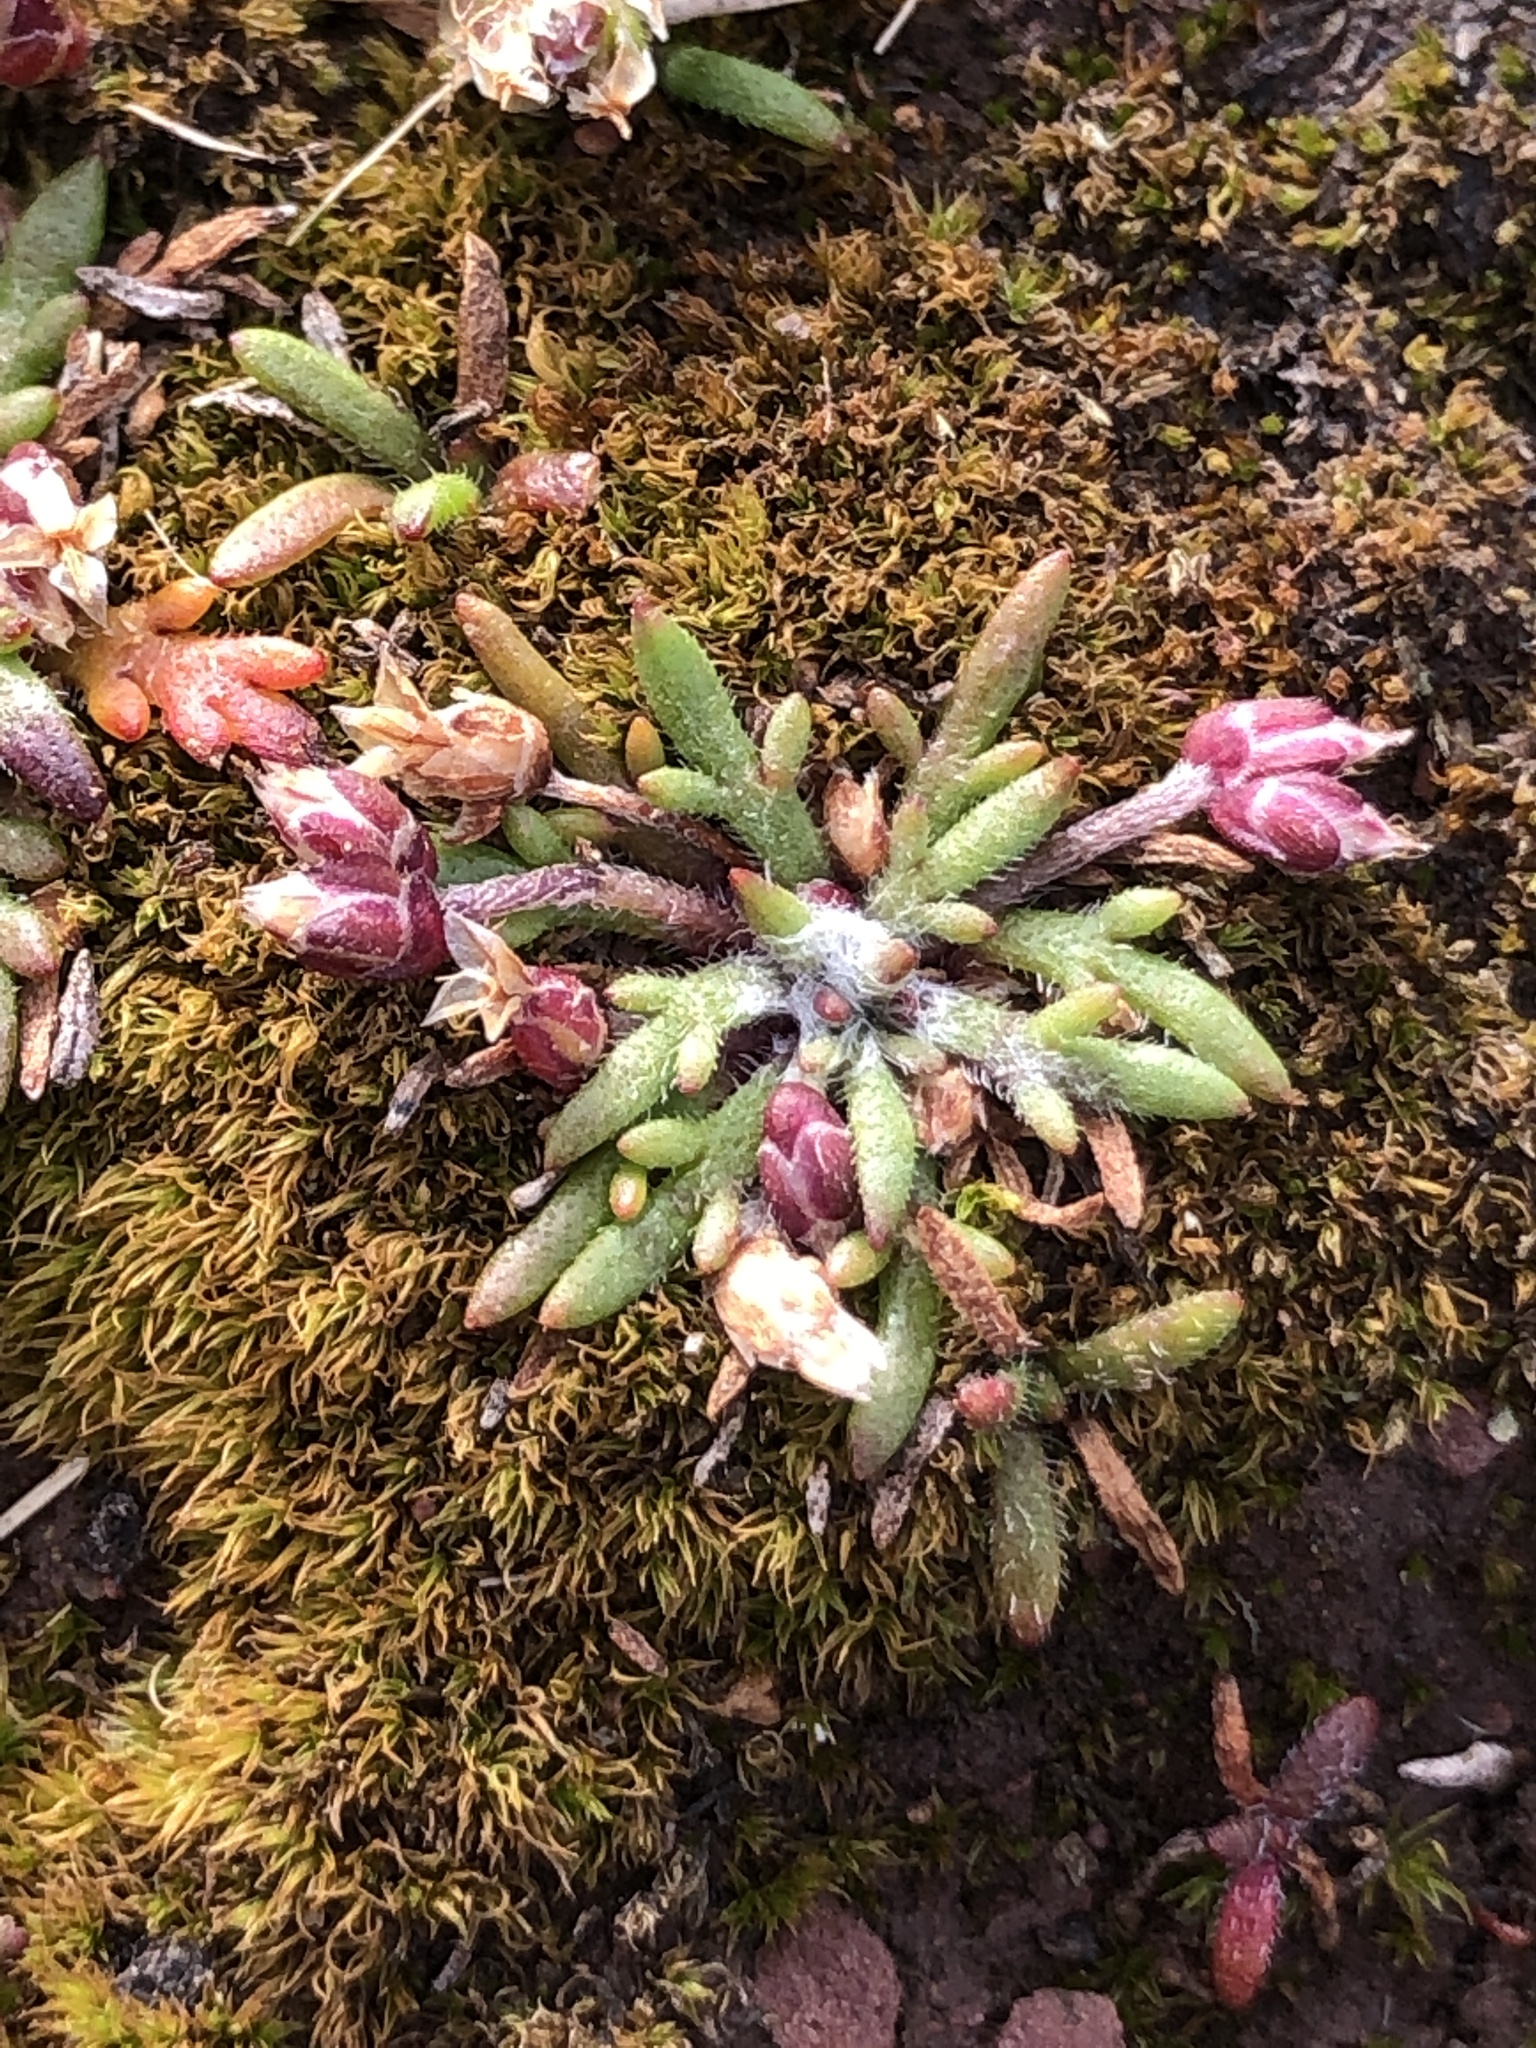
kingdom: Plantae
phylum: Tracheophyta
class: Magnoliopsida
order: Lamiales
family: Plantaginaceae
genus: Plantago
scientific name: Plantago coronopus
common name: Buck's-horn plantain
